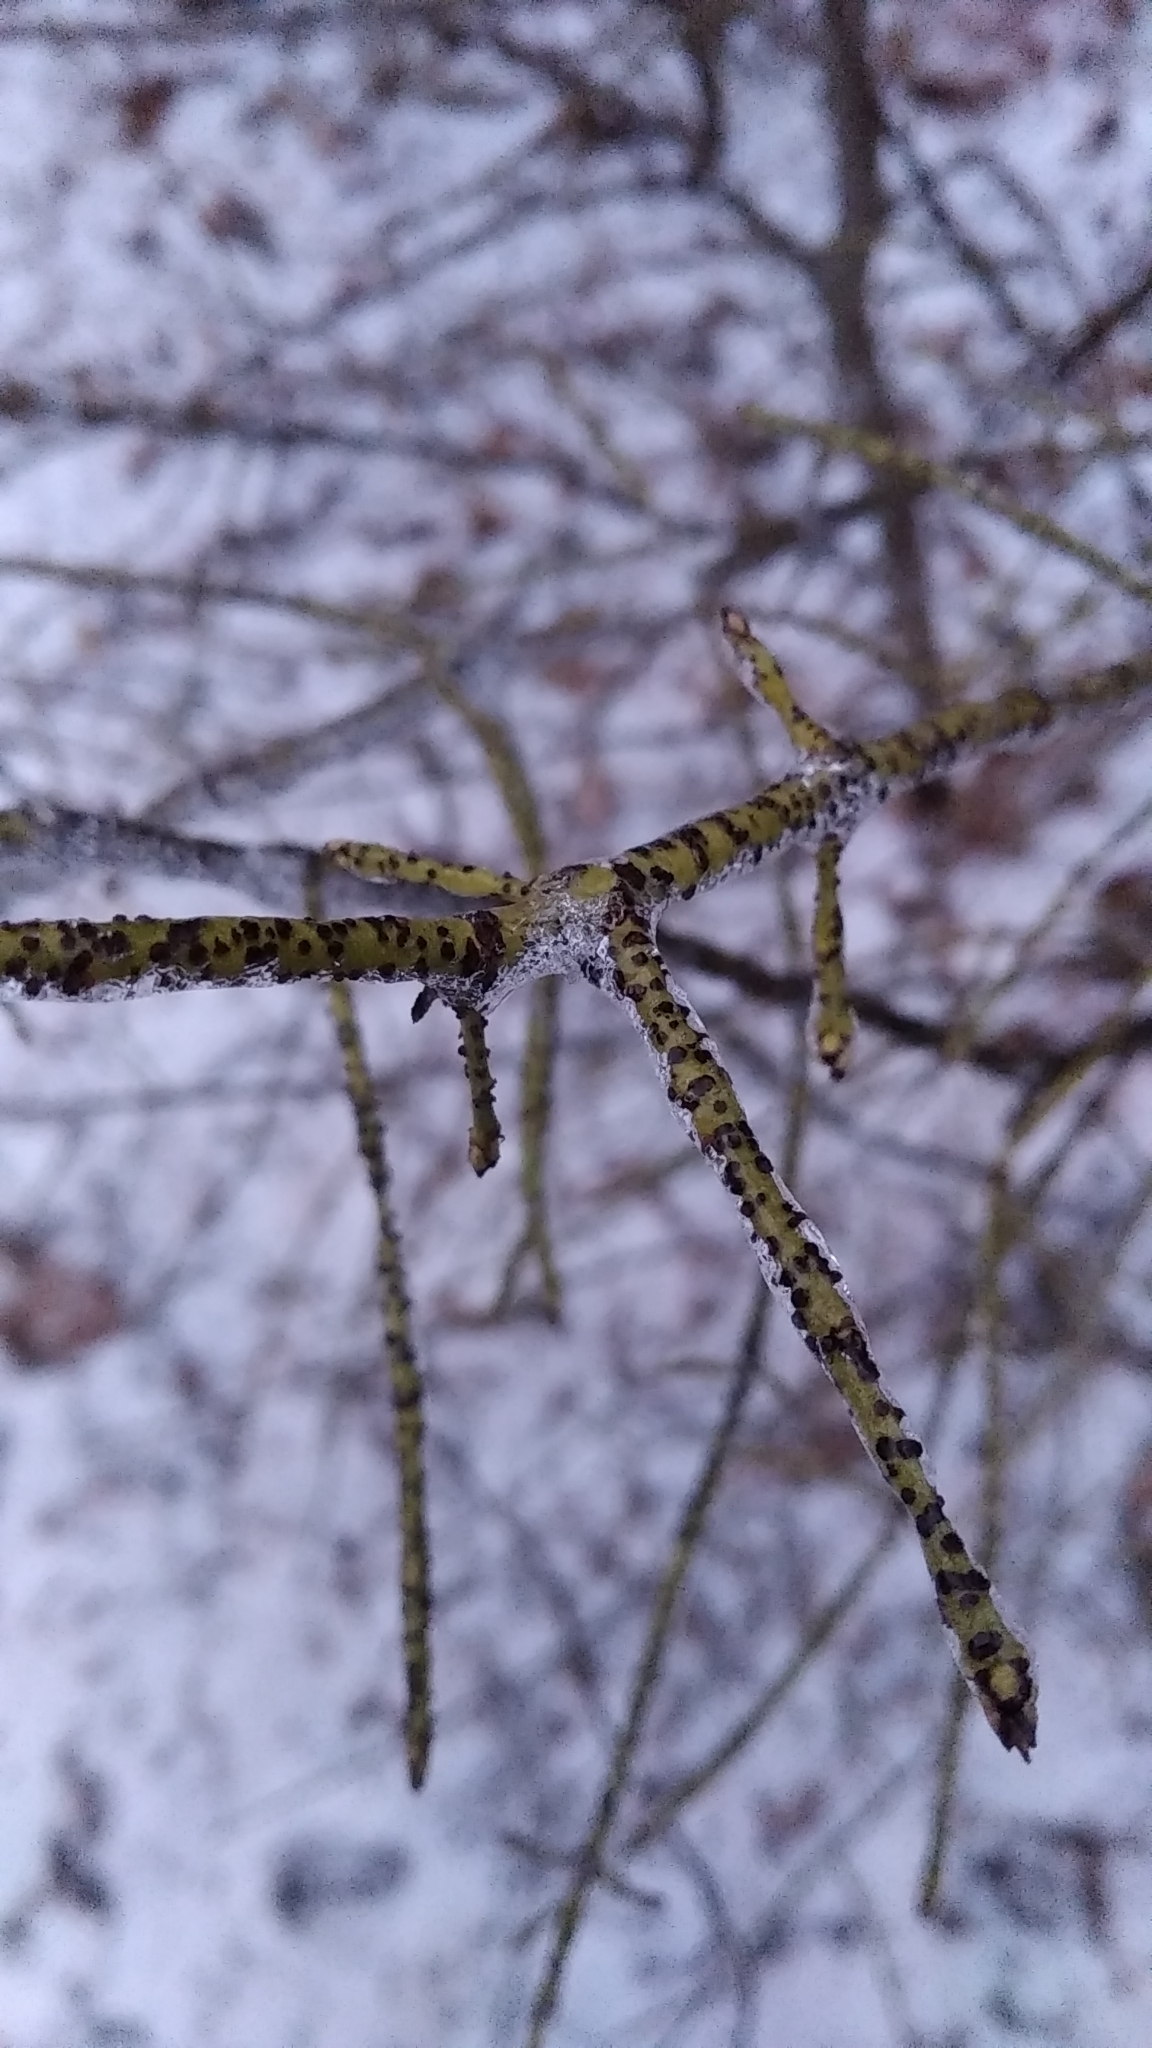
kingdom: Plantae
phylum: Tracheophyta
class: Magnoliopsida
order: Celastrales
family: Celastraceae
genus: Euonymus
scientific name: Euonymus verrucosus
